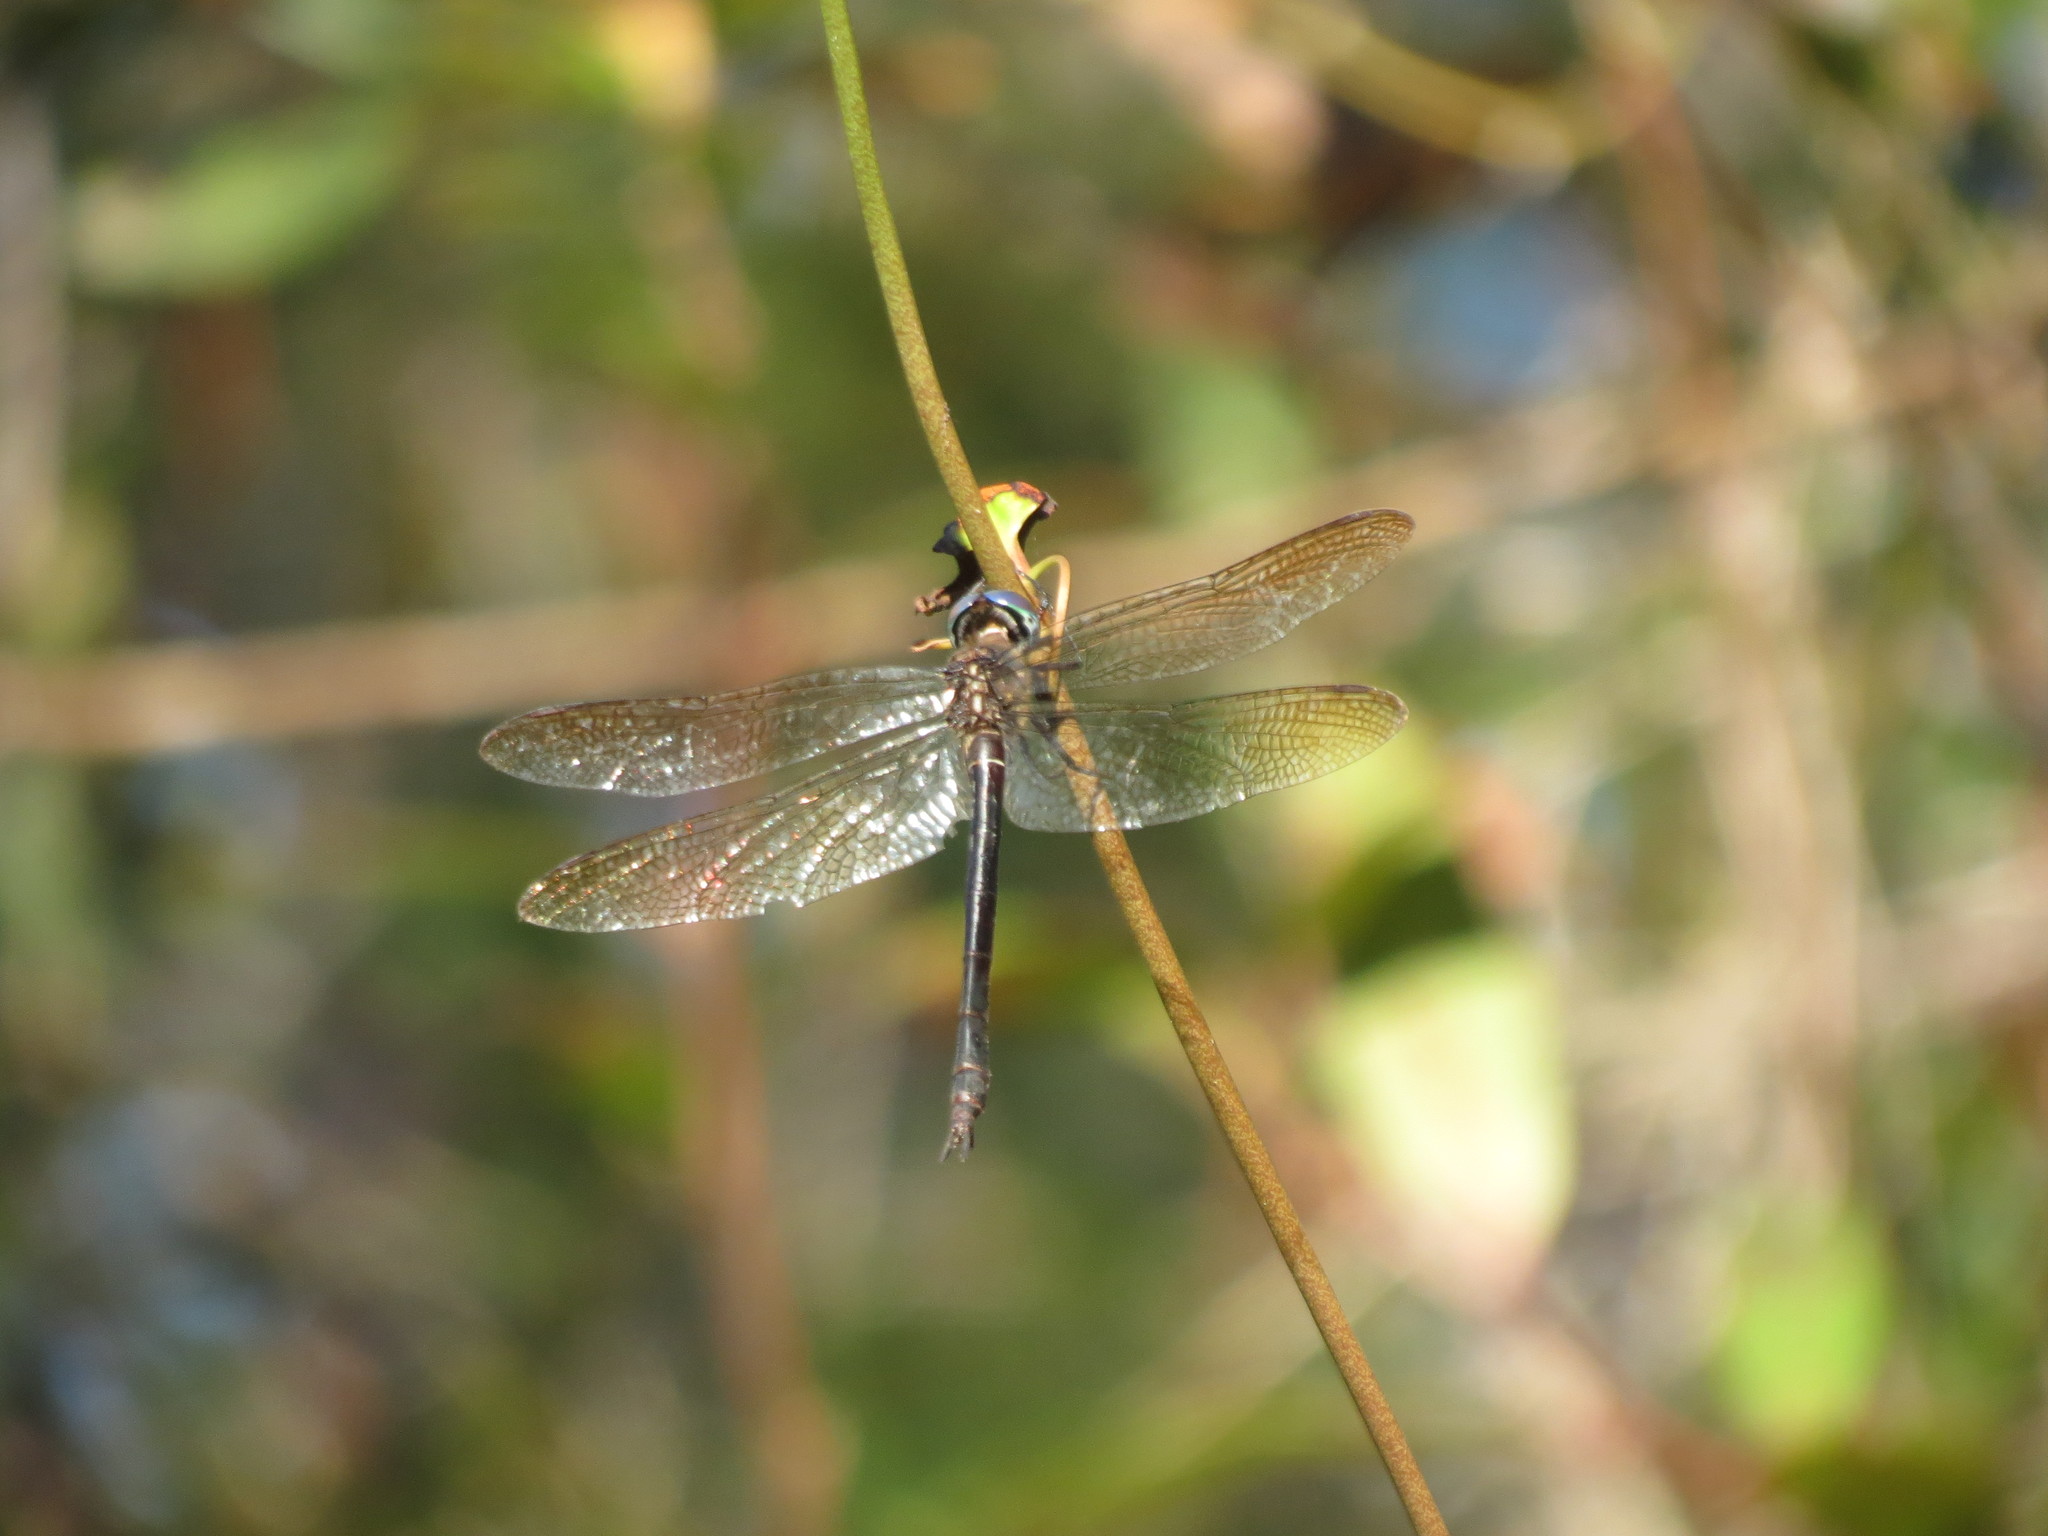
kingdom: Animalia
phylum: Arthropoda
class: Insecta
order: Odonata
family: Corduliidae
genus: Somatochlora
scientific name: Somatochlora filosa
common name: Fine-lined emerald
